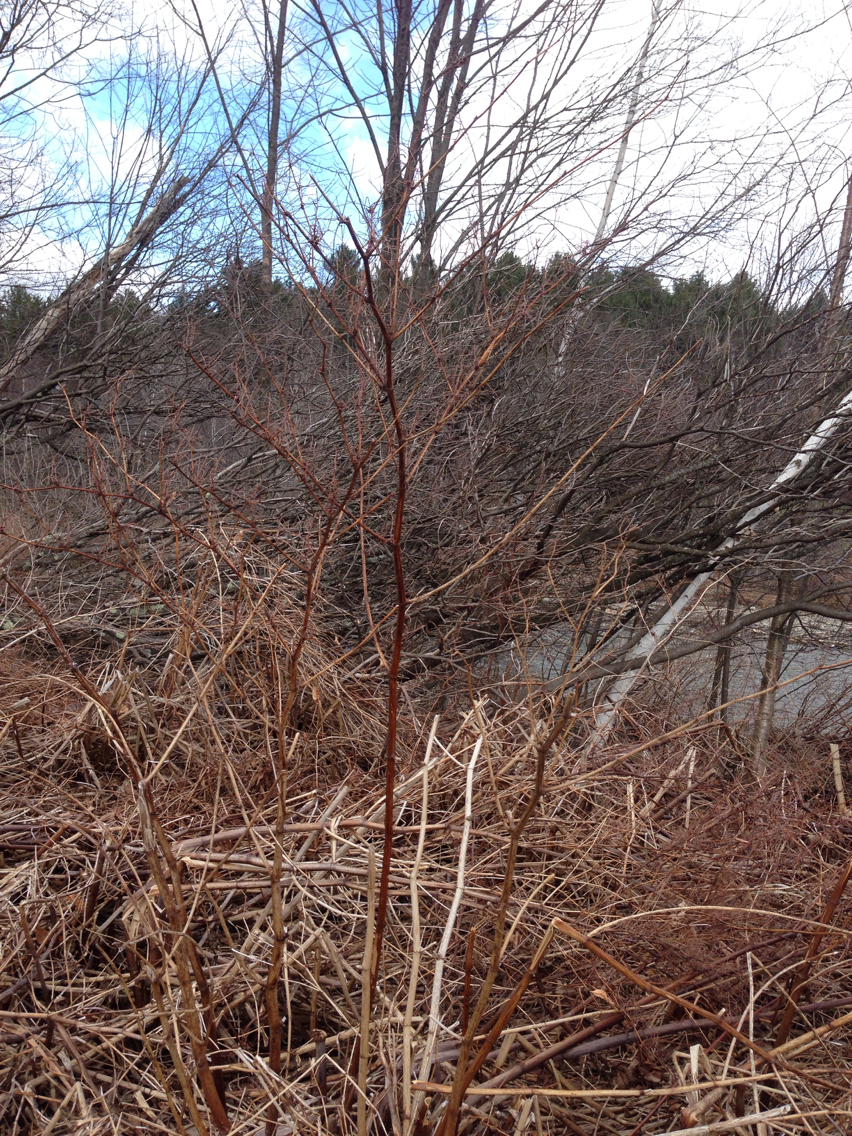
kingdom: Plantae
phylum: Tracheophyta
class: Magnoliopsida
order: Caryophyllales
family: Polygonaceae
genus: Reynoutria
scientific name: Reynoutria japonica
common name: Japanese knotweed
